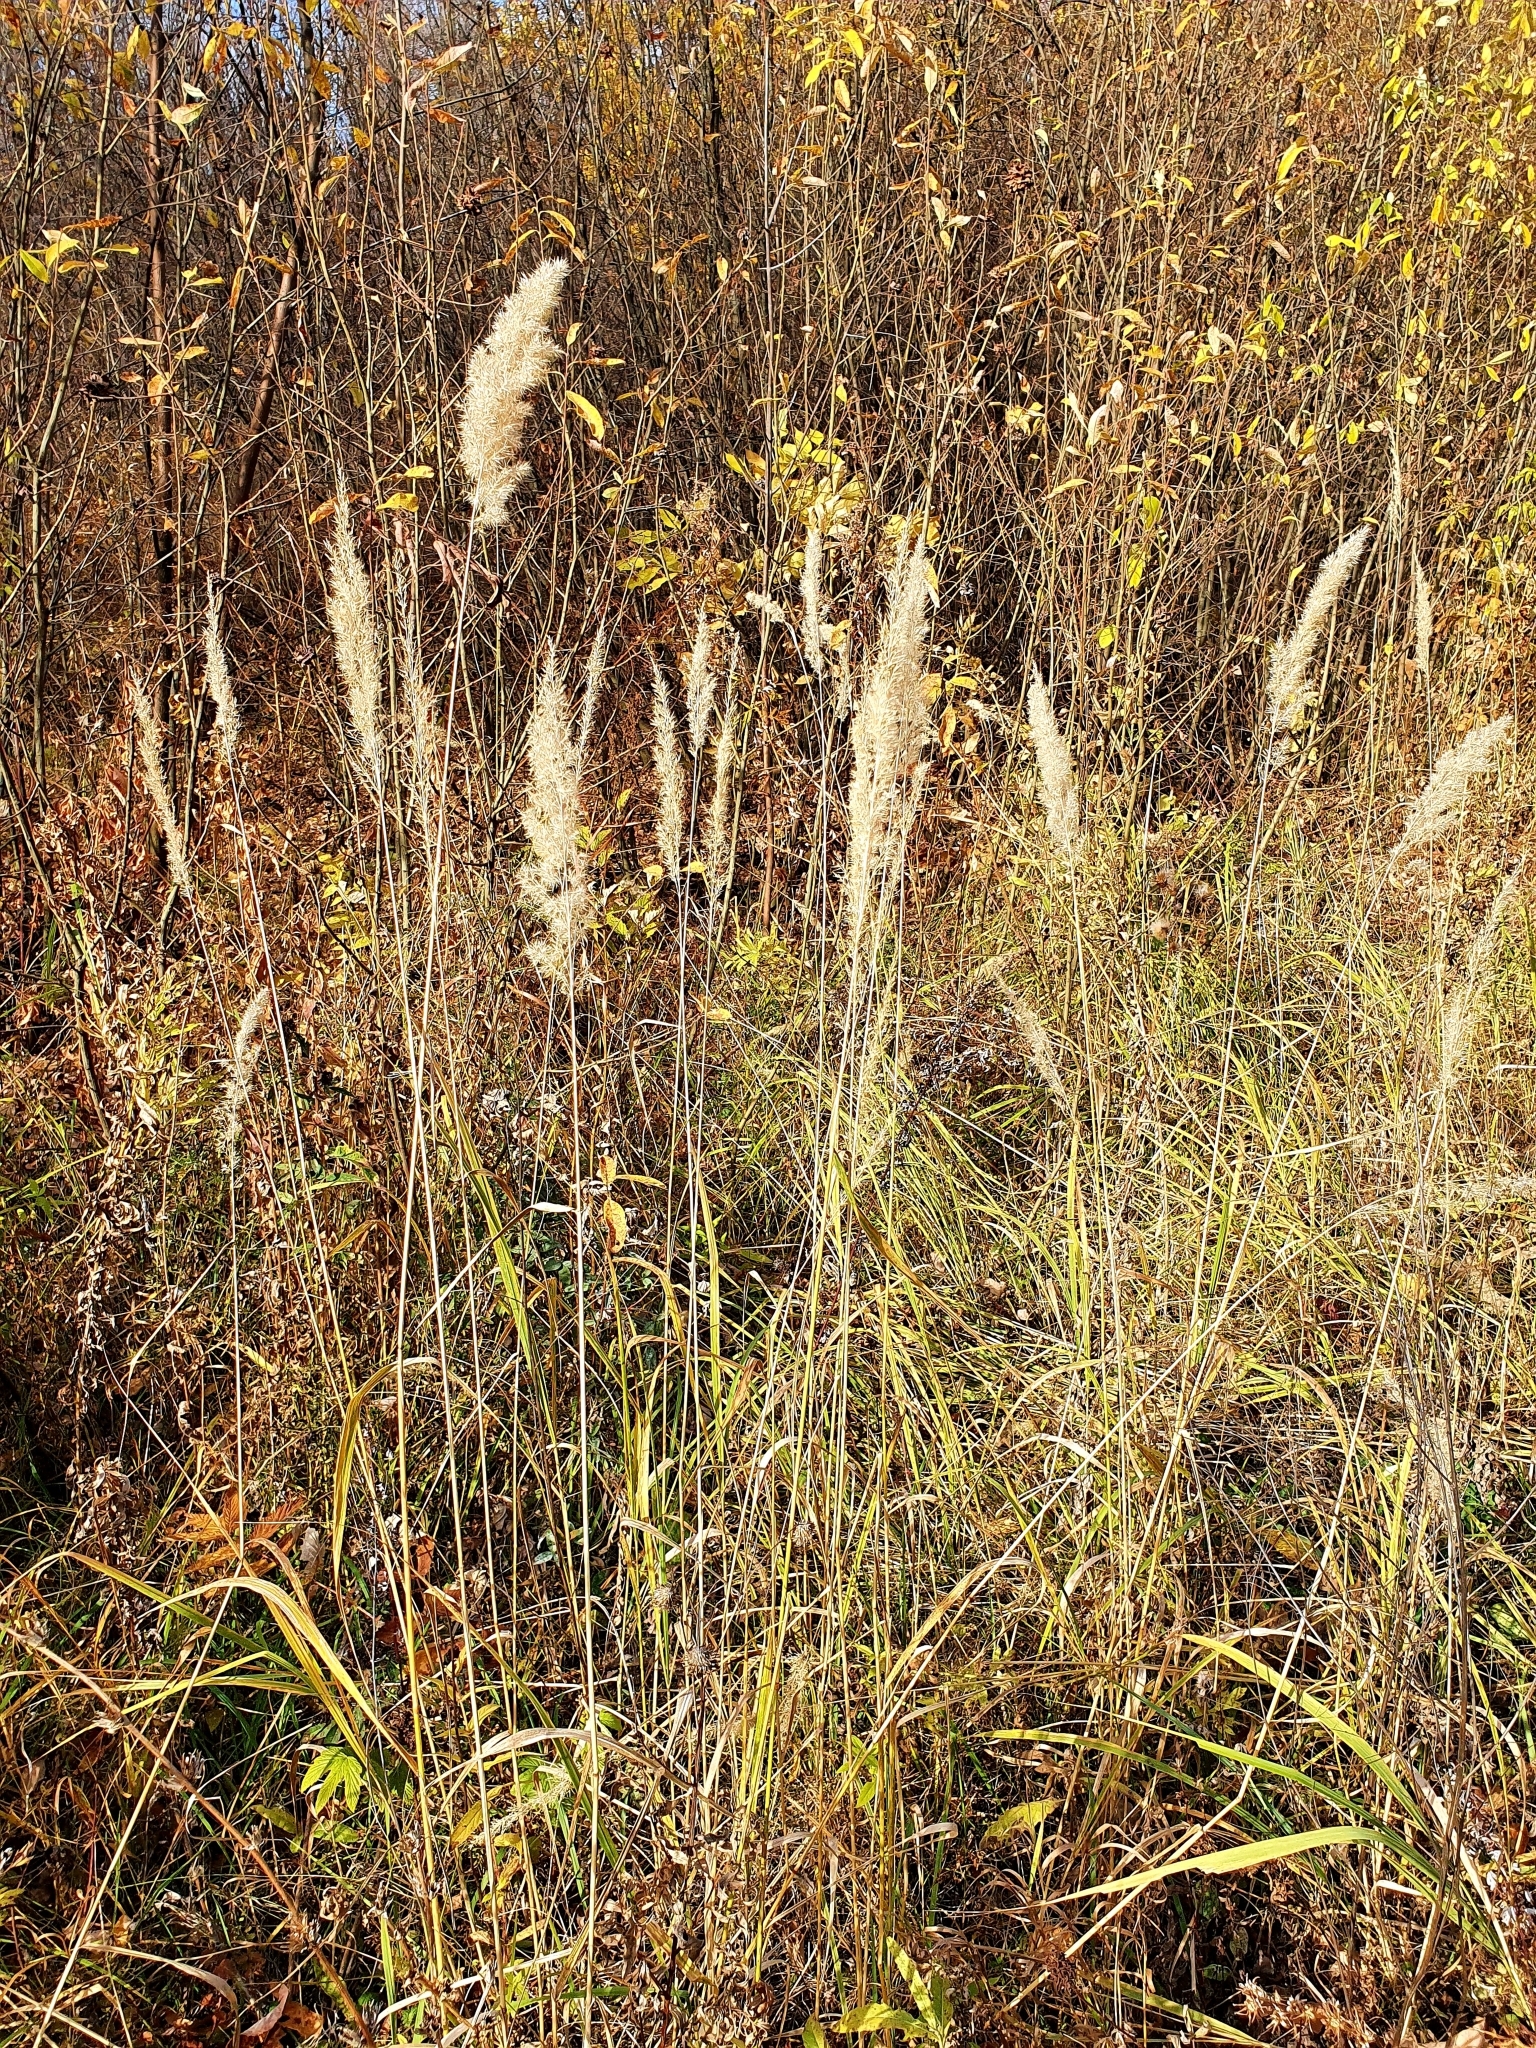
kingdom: Plantae
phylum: Tracheophyta
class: Liliopsida
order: Poales
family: Poaceae
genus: Calamagrostis
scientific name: Calamagrostis epigejos
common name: Wood small-reed
